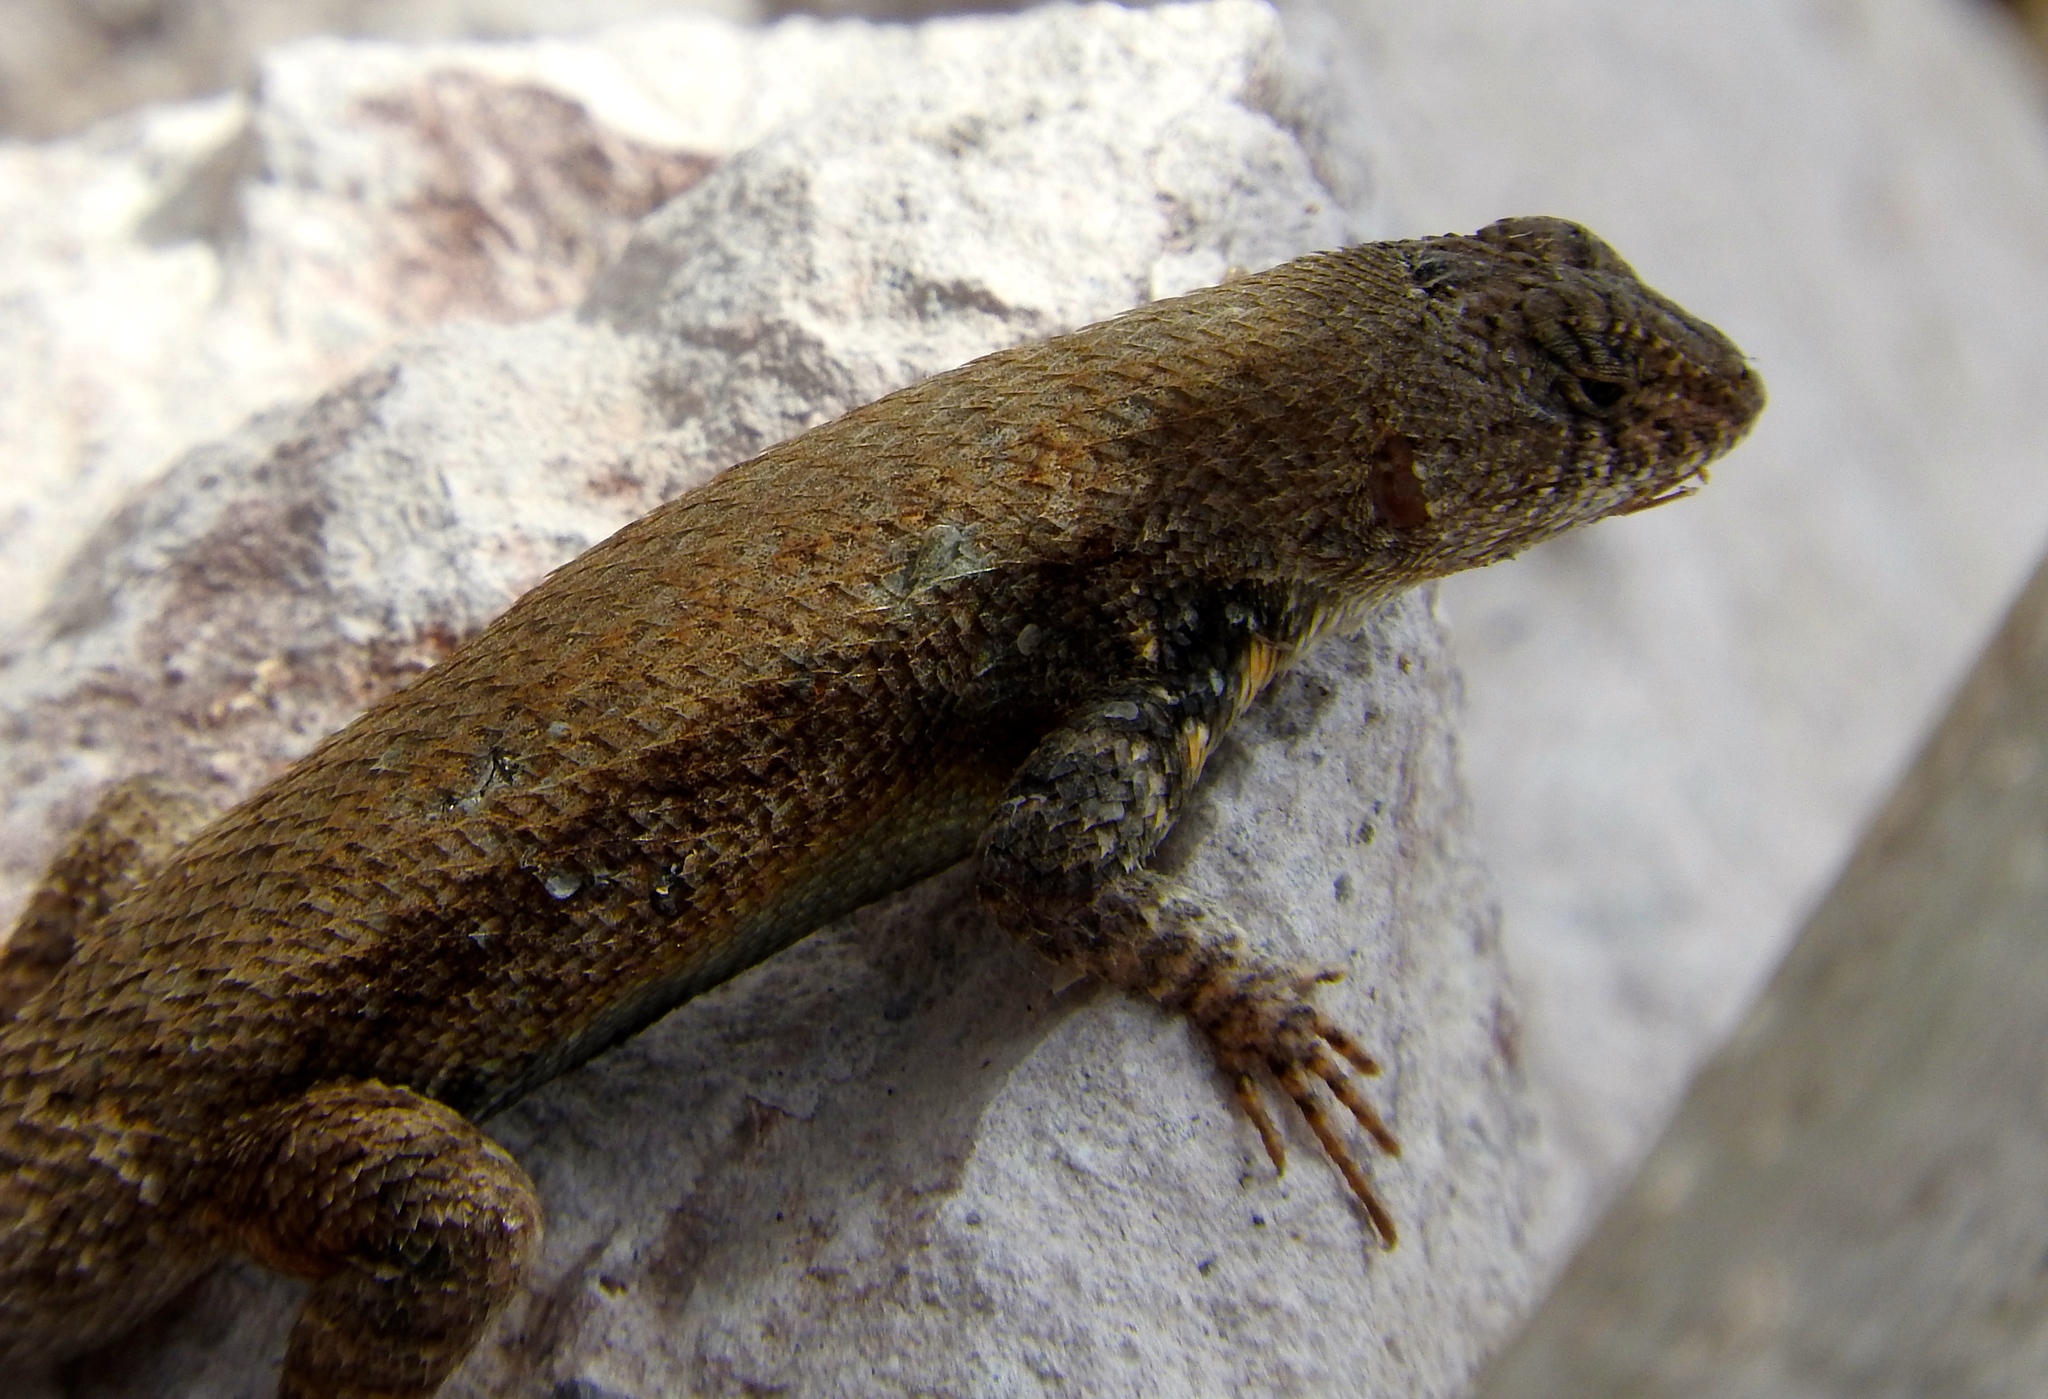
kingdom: Animalia
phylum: Chordata
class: Squamata
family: Phrynosomatidae
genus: Sceloporus
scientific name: Sceloporus nelsoni
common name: Nelson's spiny lizard
